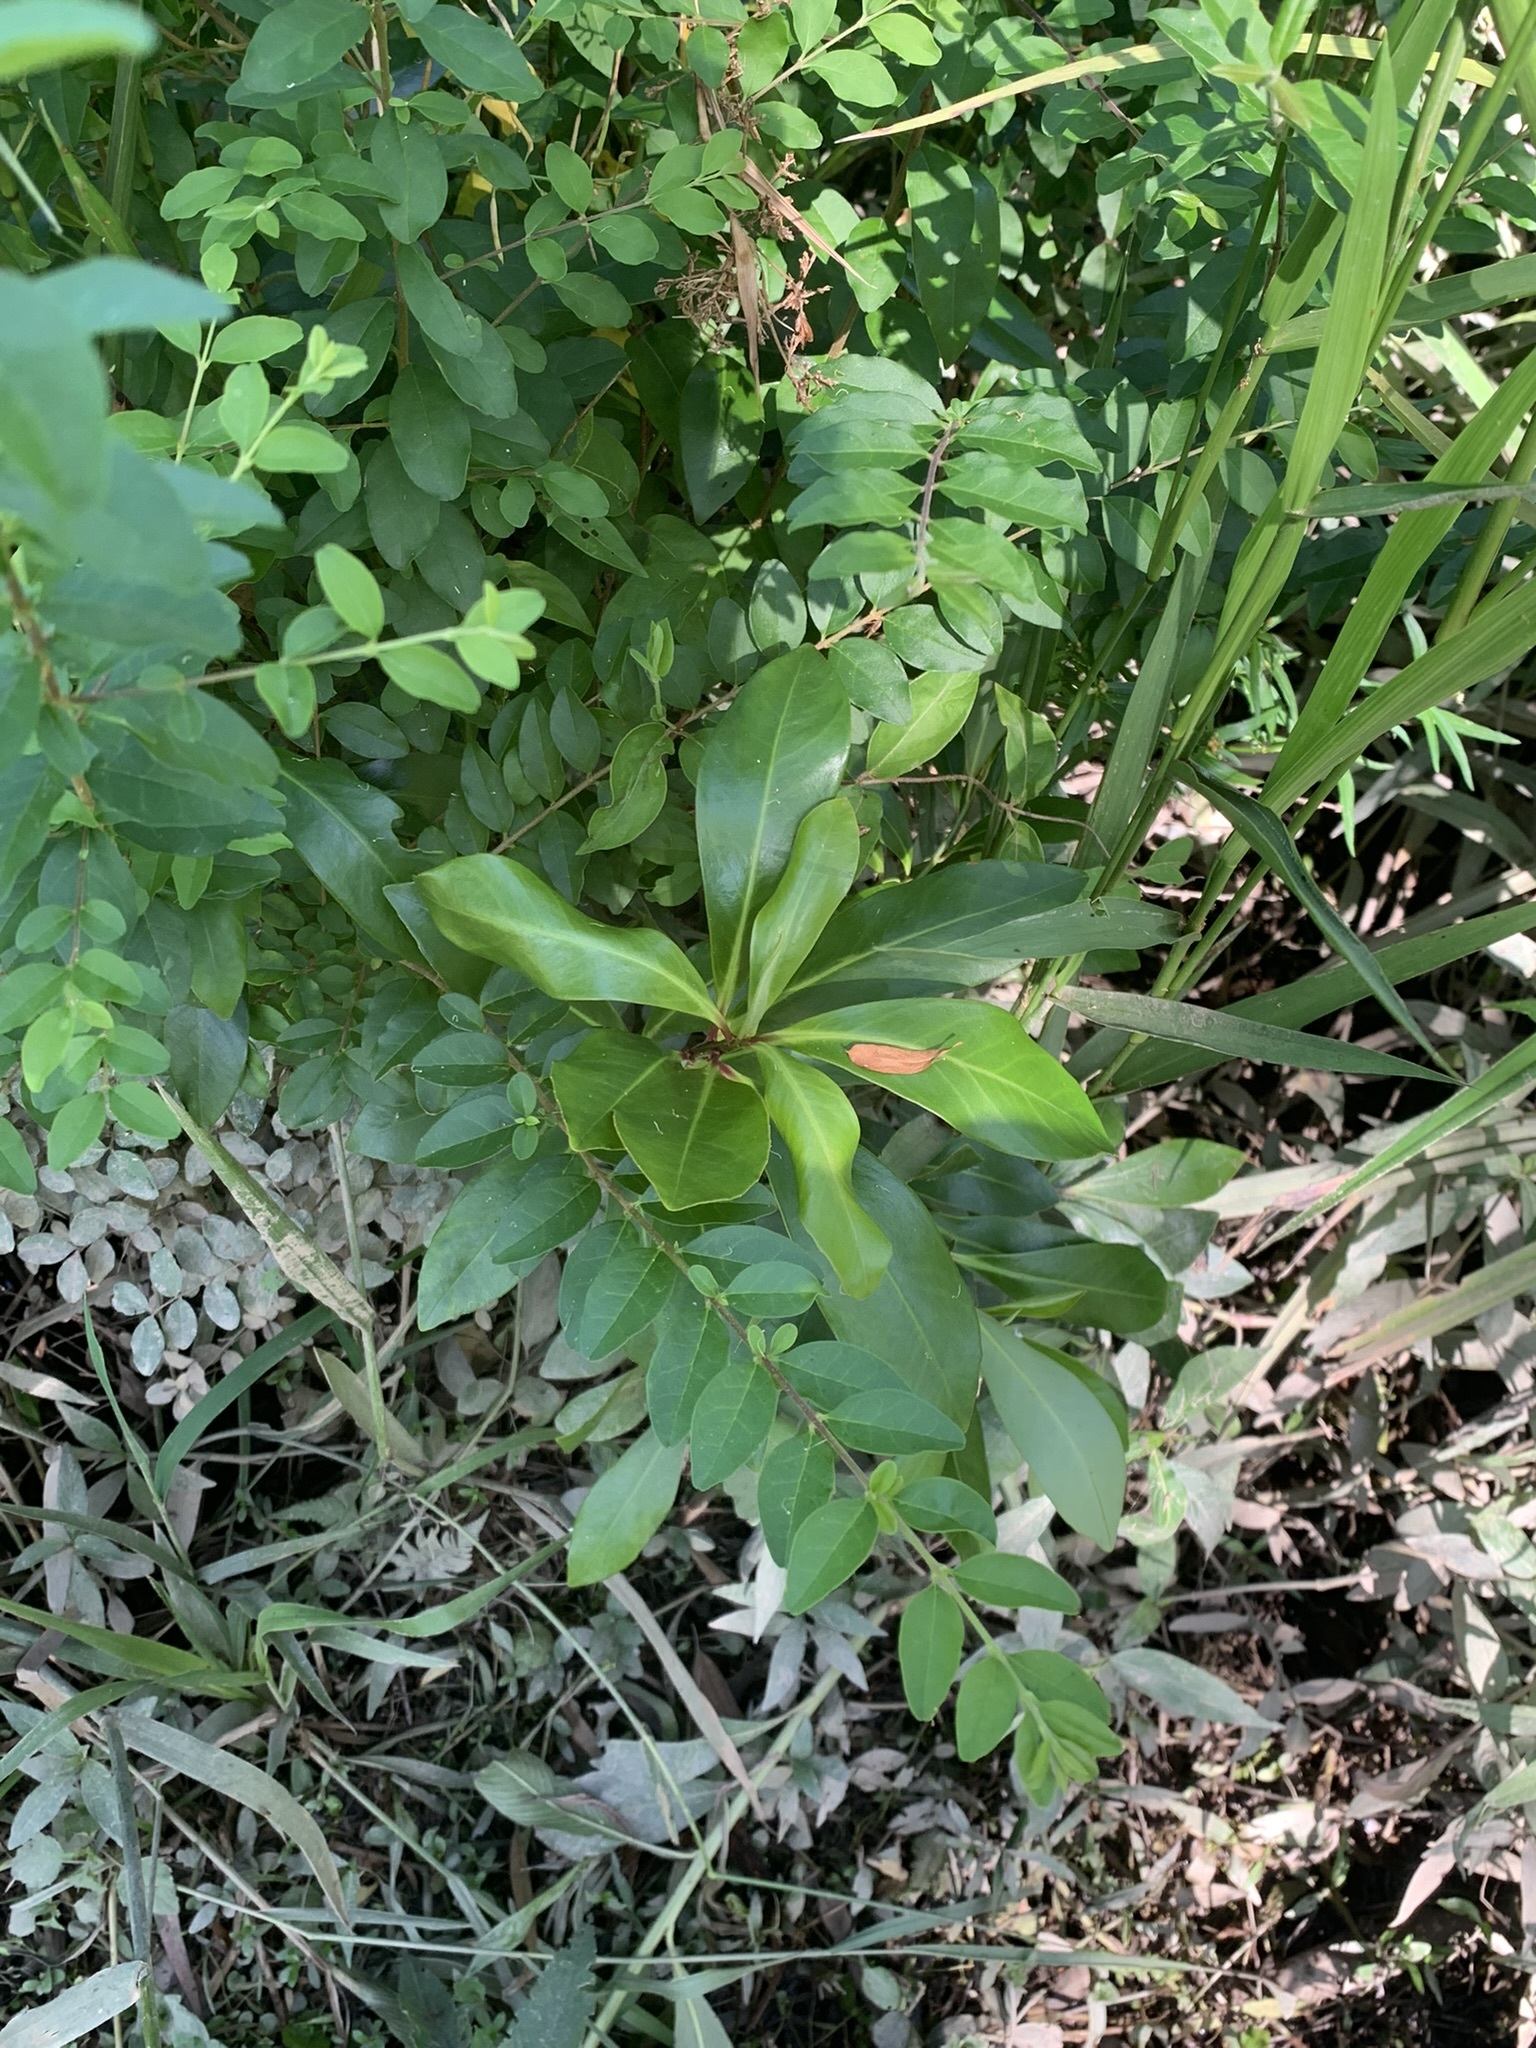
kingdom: Plantae
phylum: Tracheophyta
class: Magnoliopsida
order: Ericales
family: Primulaceae
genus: Myrsine
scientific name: Myrsine laetevirens
